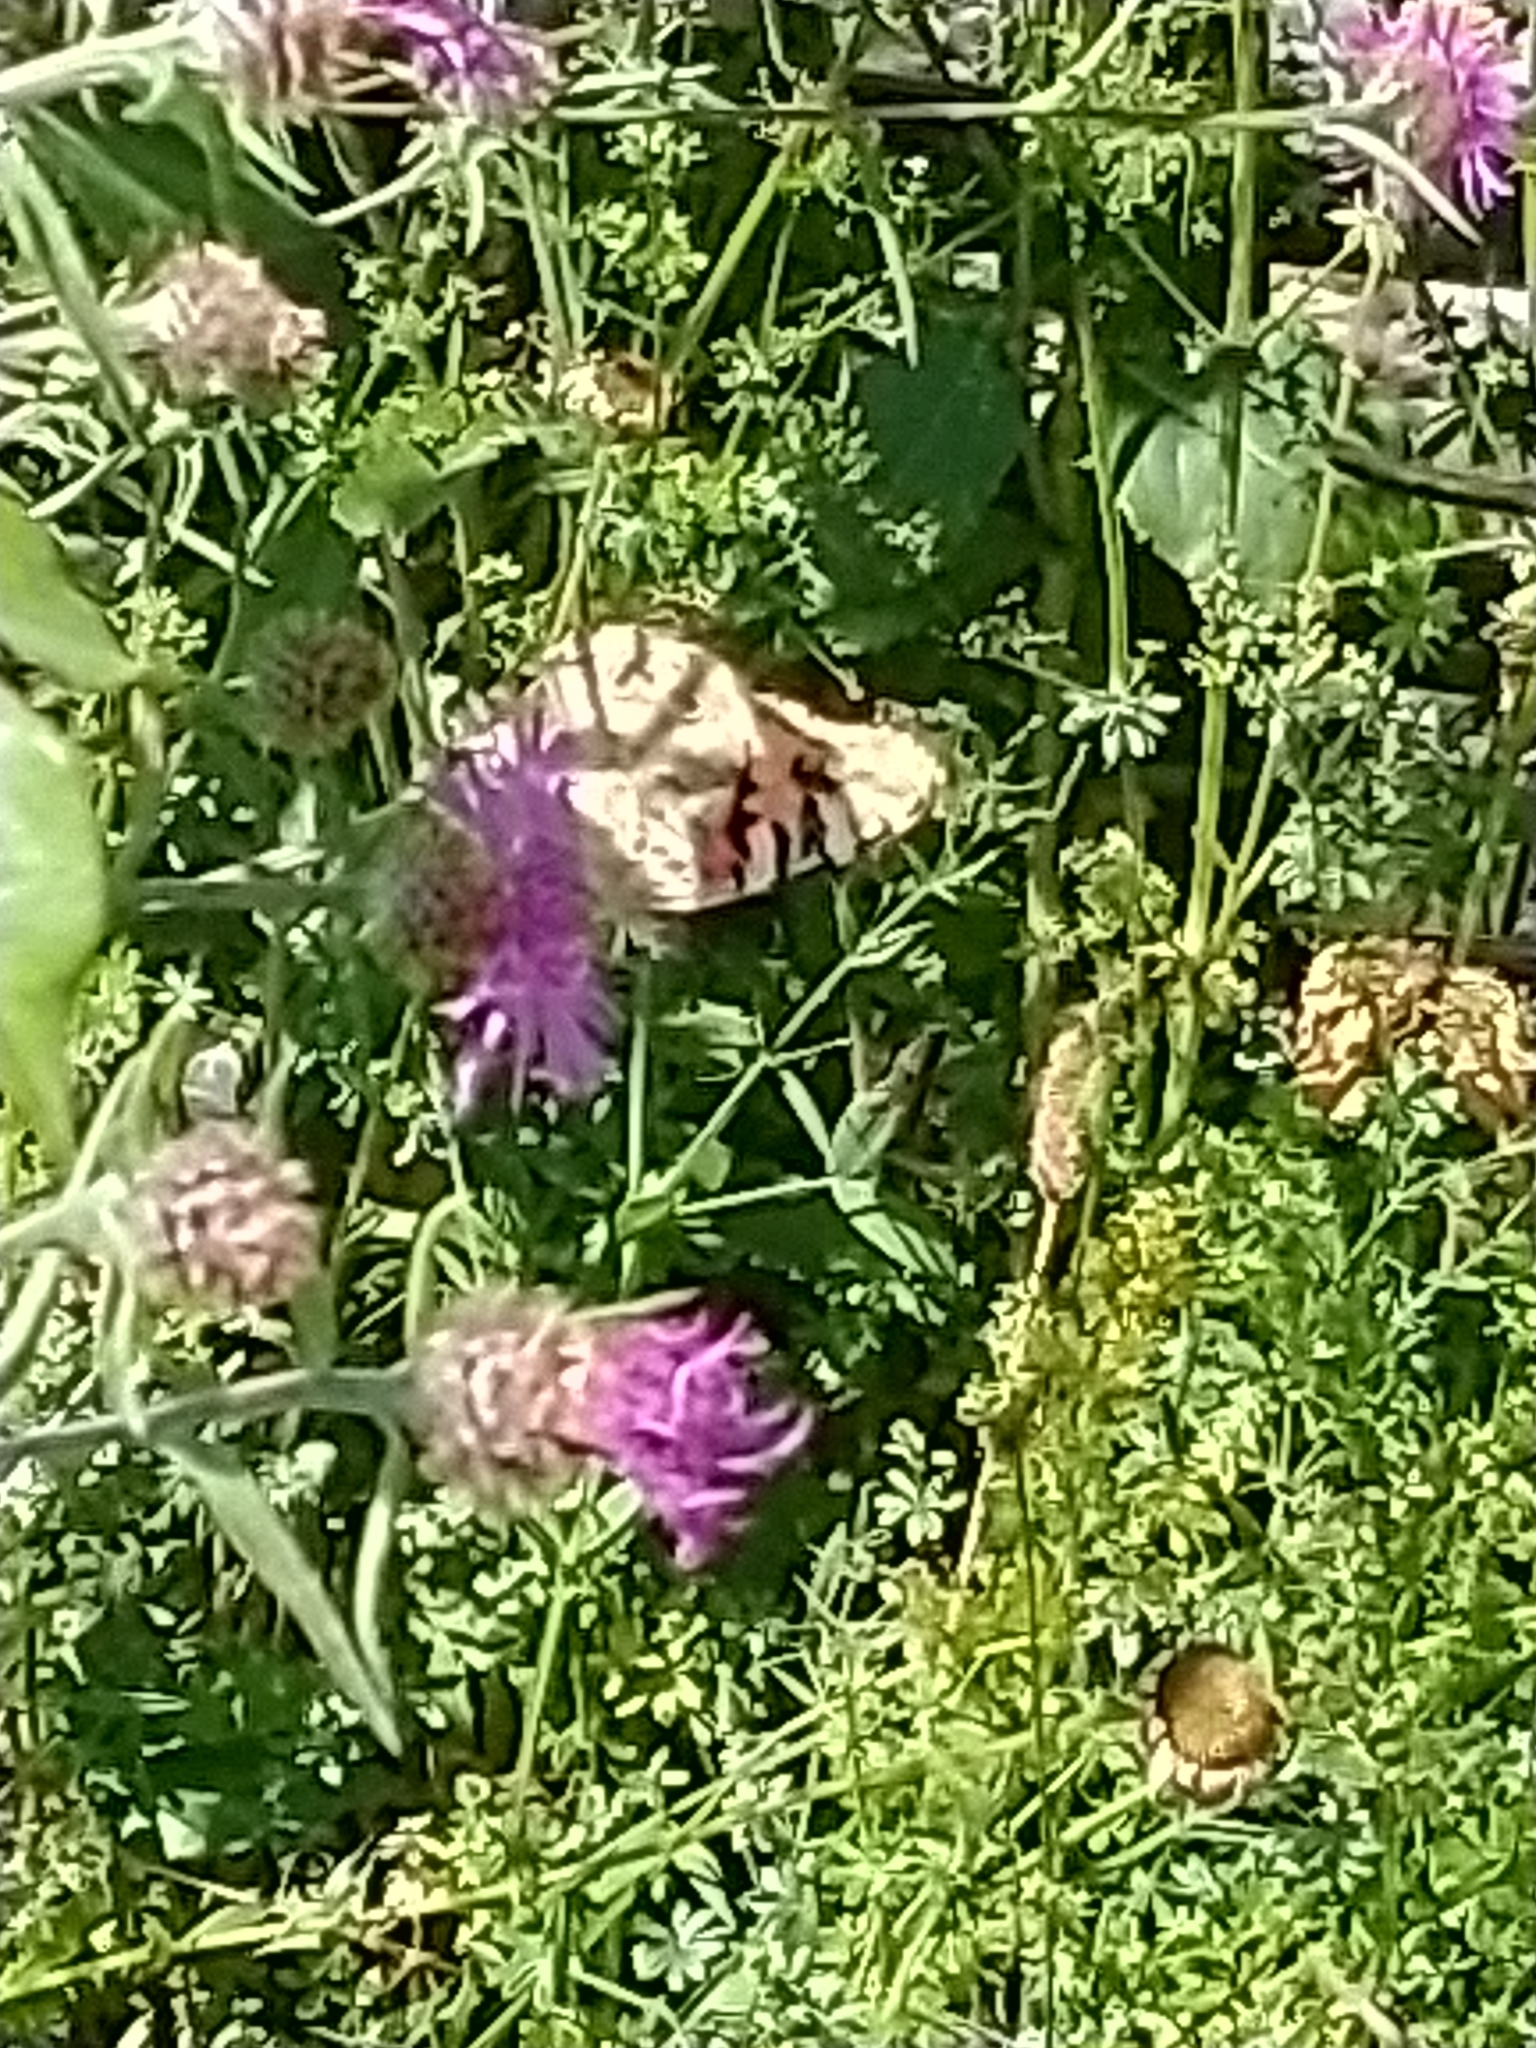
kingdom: Animalia
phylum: Arthropoda
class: Insecta
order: Lepidoptera
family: Nymphalidae
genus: Vanessa
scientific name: Vanessa cardui
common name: Painted lady
